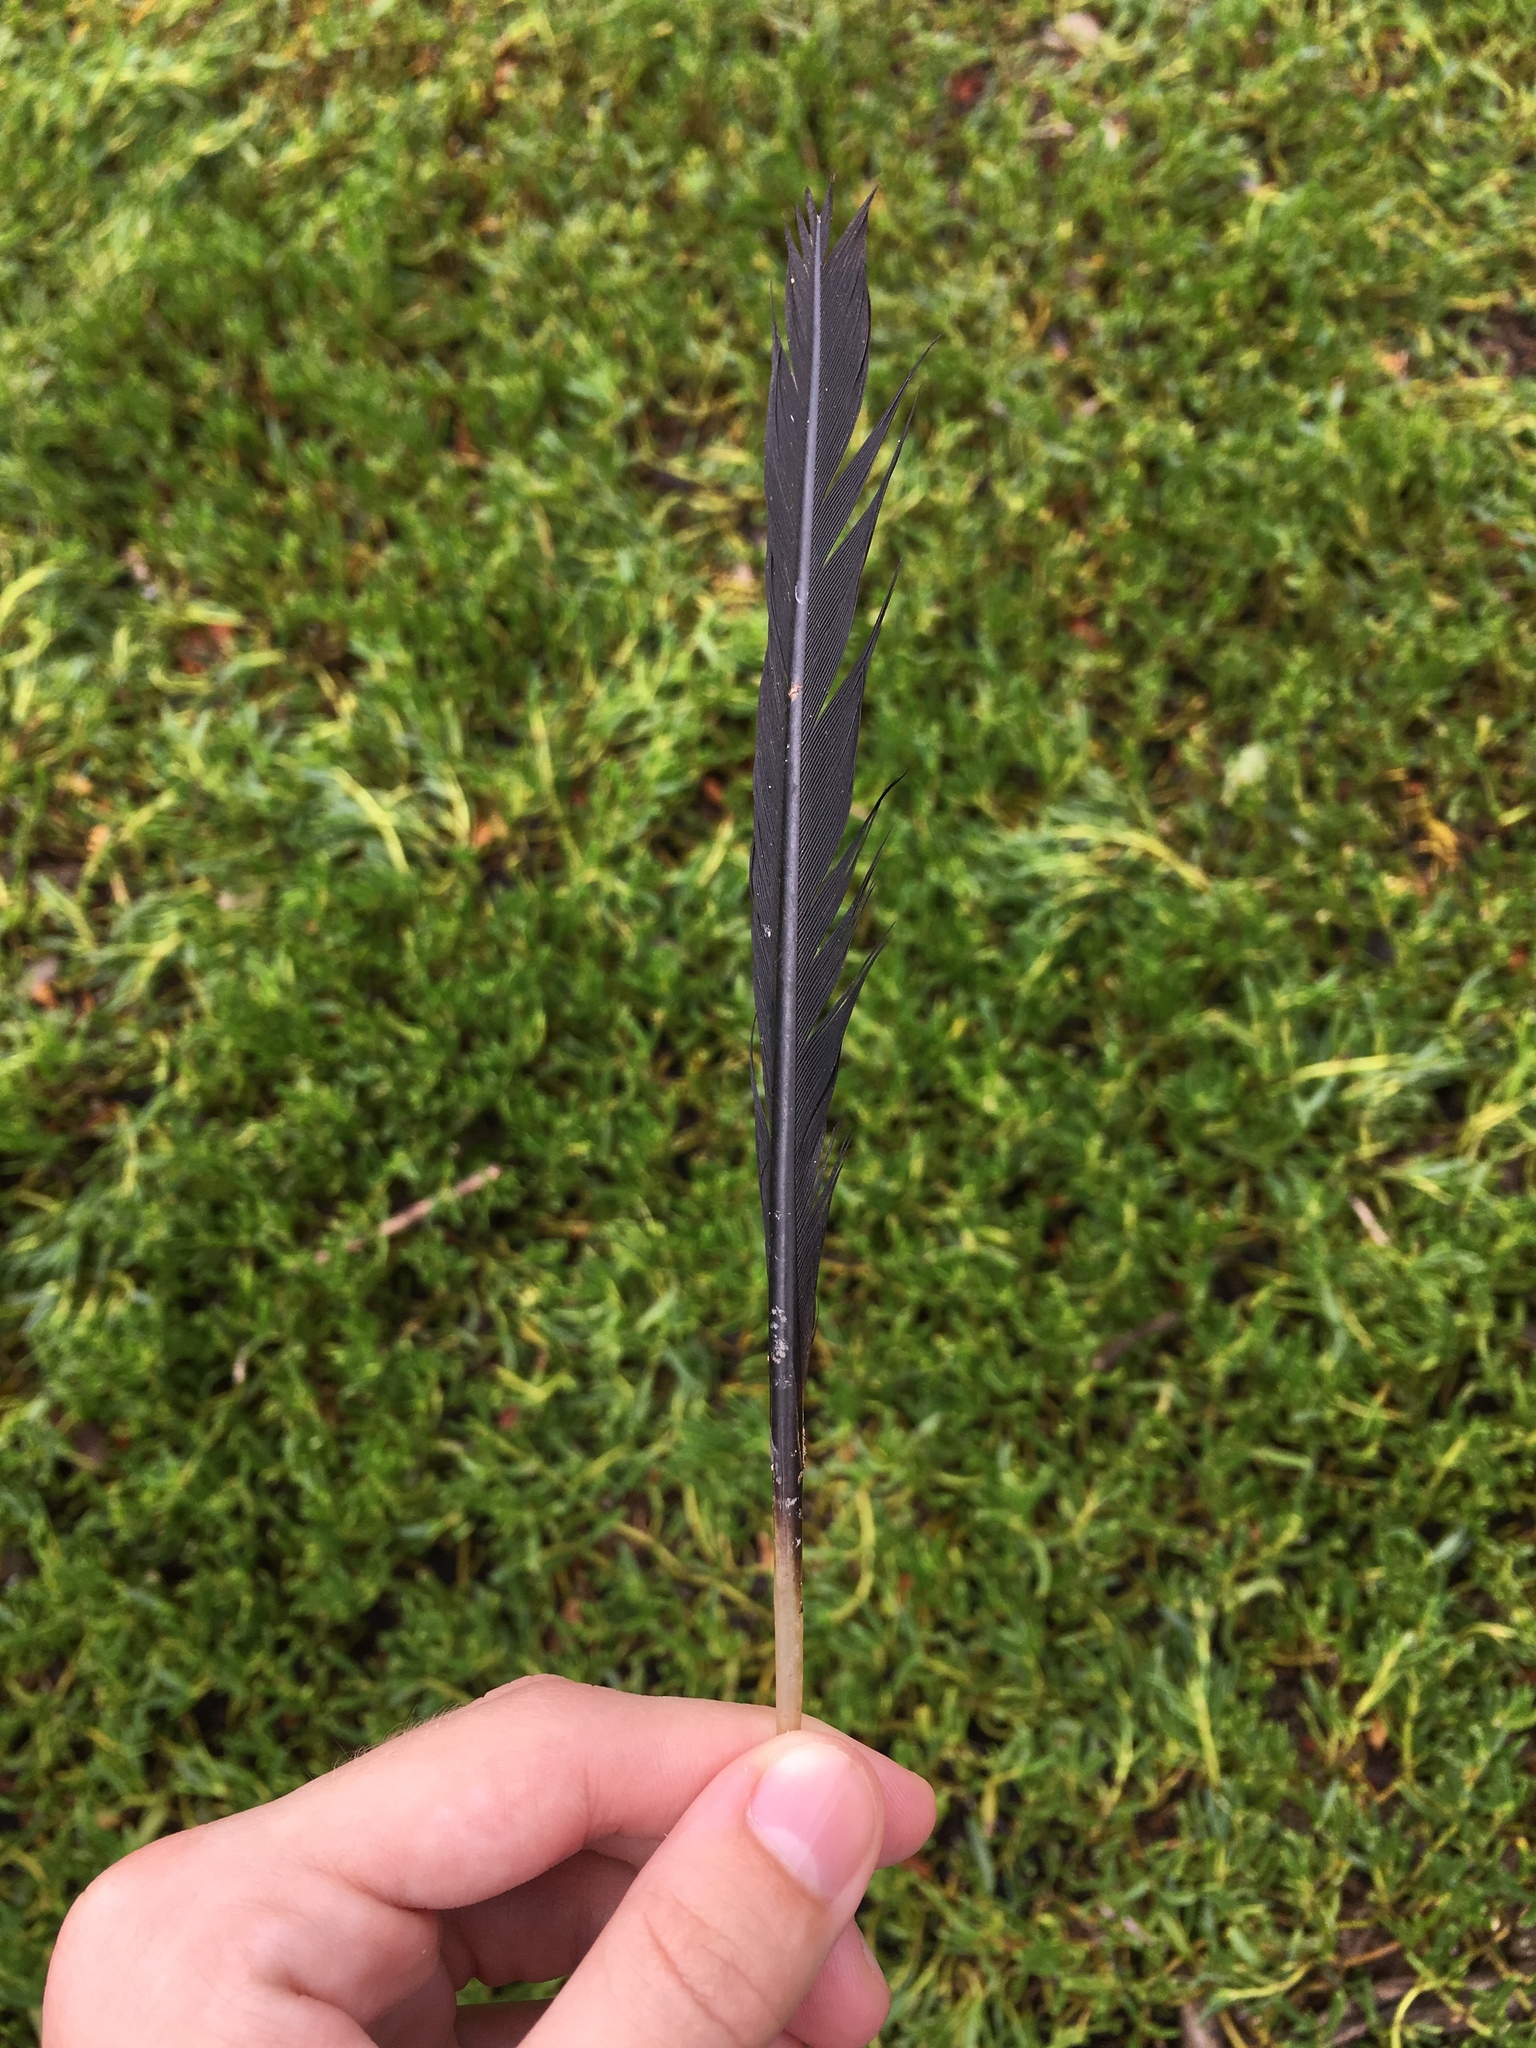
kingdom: Animalia
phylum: Chordata
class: Aves
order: Suliformes
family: Phalacrocoracidae
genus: Phalacrocorax
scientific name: Phalacrocorax auritus
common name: Double-crested cormorant
